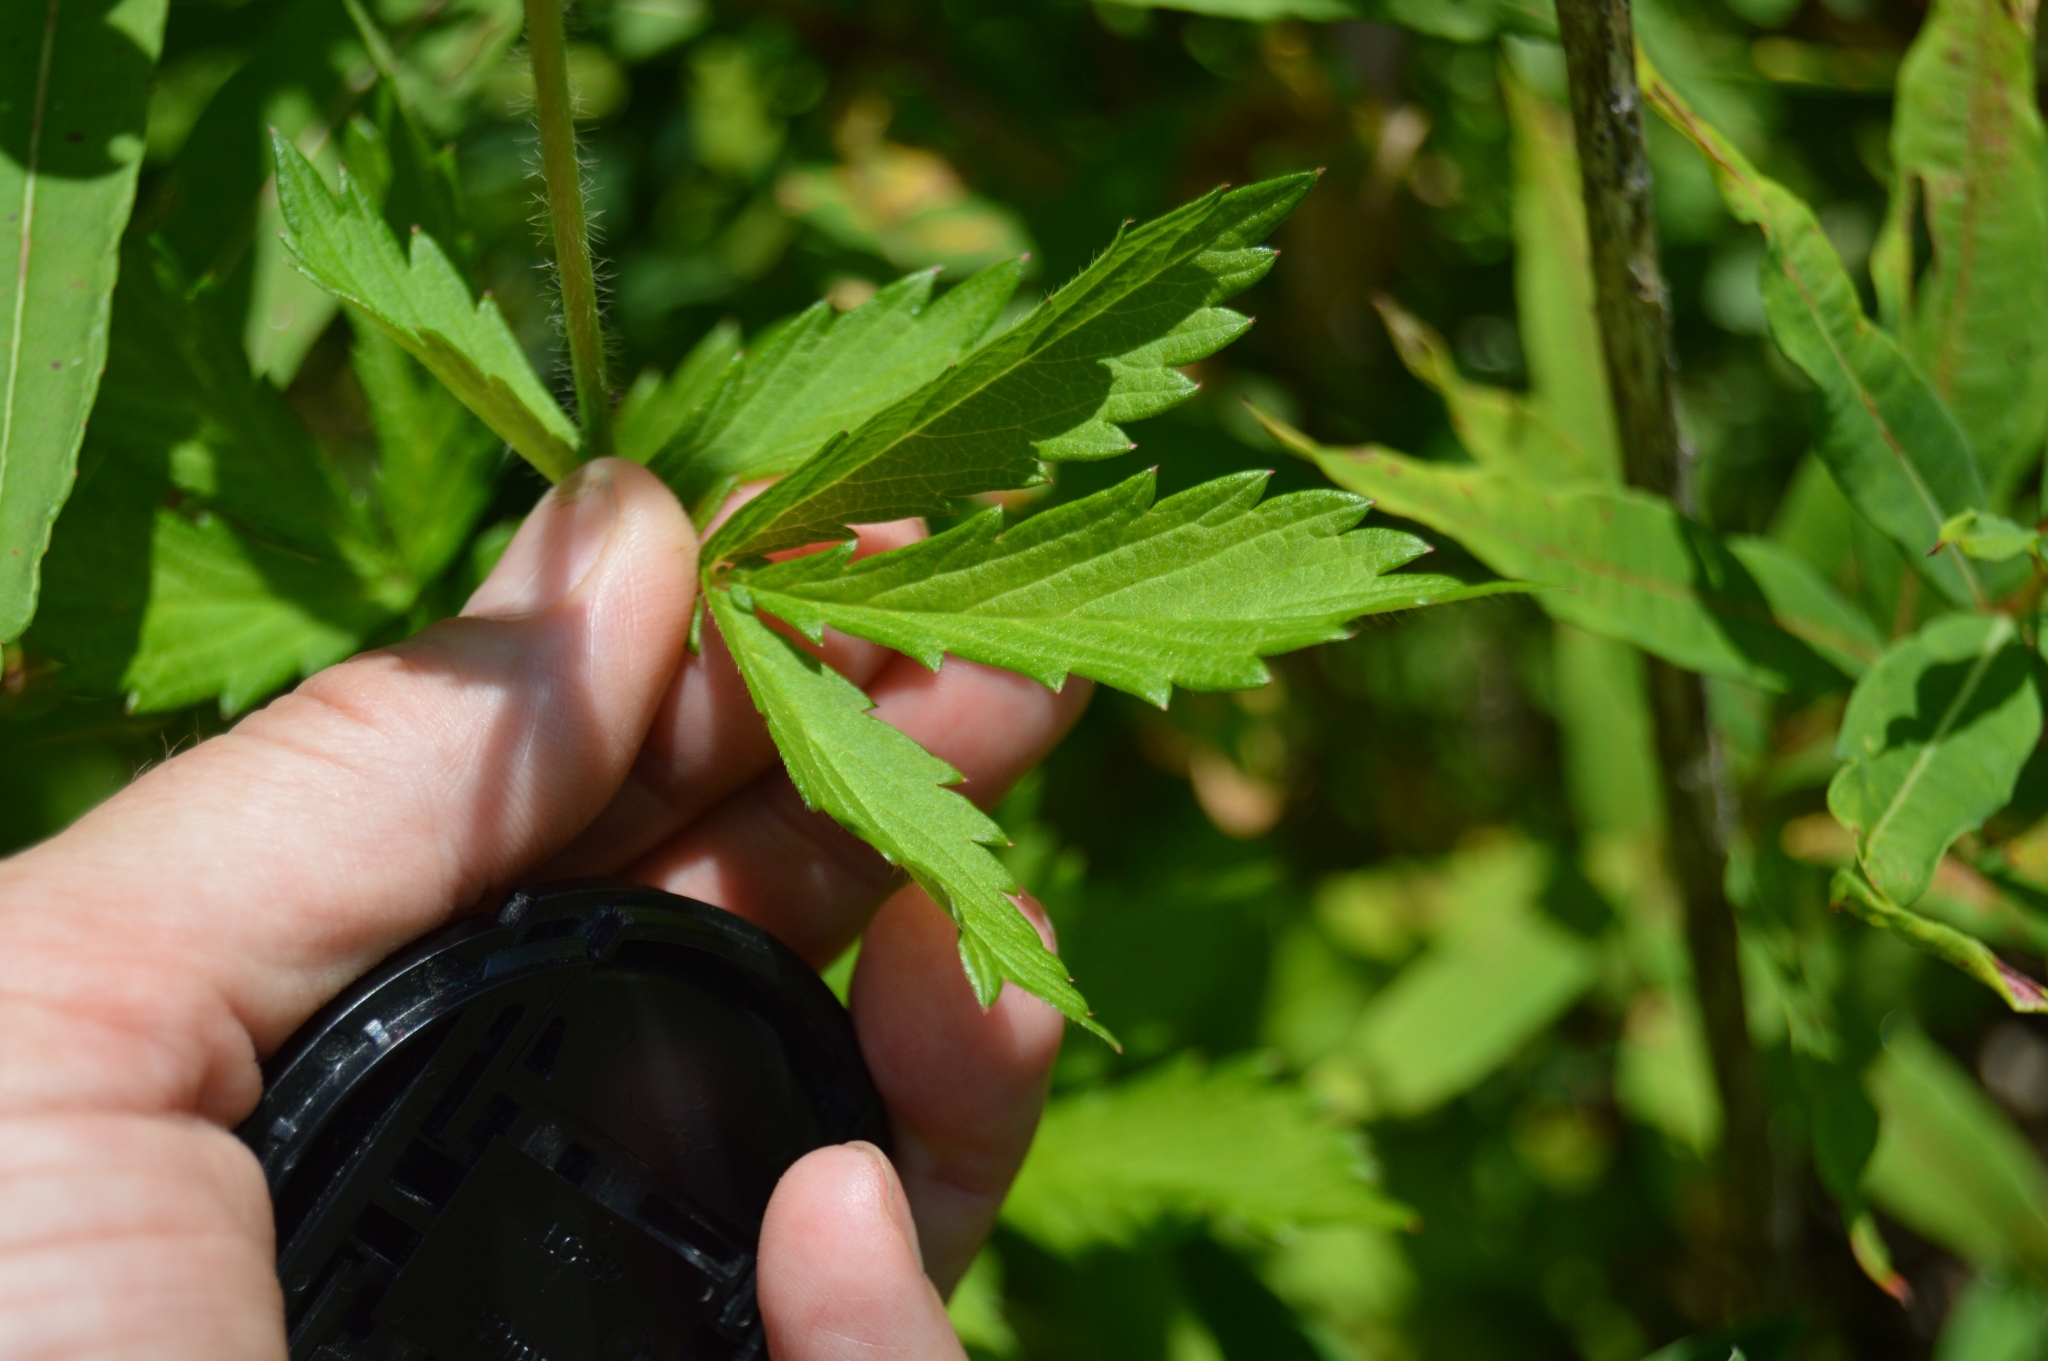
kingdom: Plantae
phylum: Tracheophyta
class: Magnoliopsida
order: Rosales
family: Rosaceae
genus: Agrimonia
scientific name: Agrimonia eupatoria
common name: Agrimony
